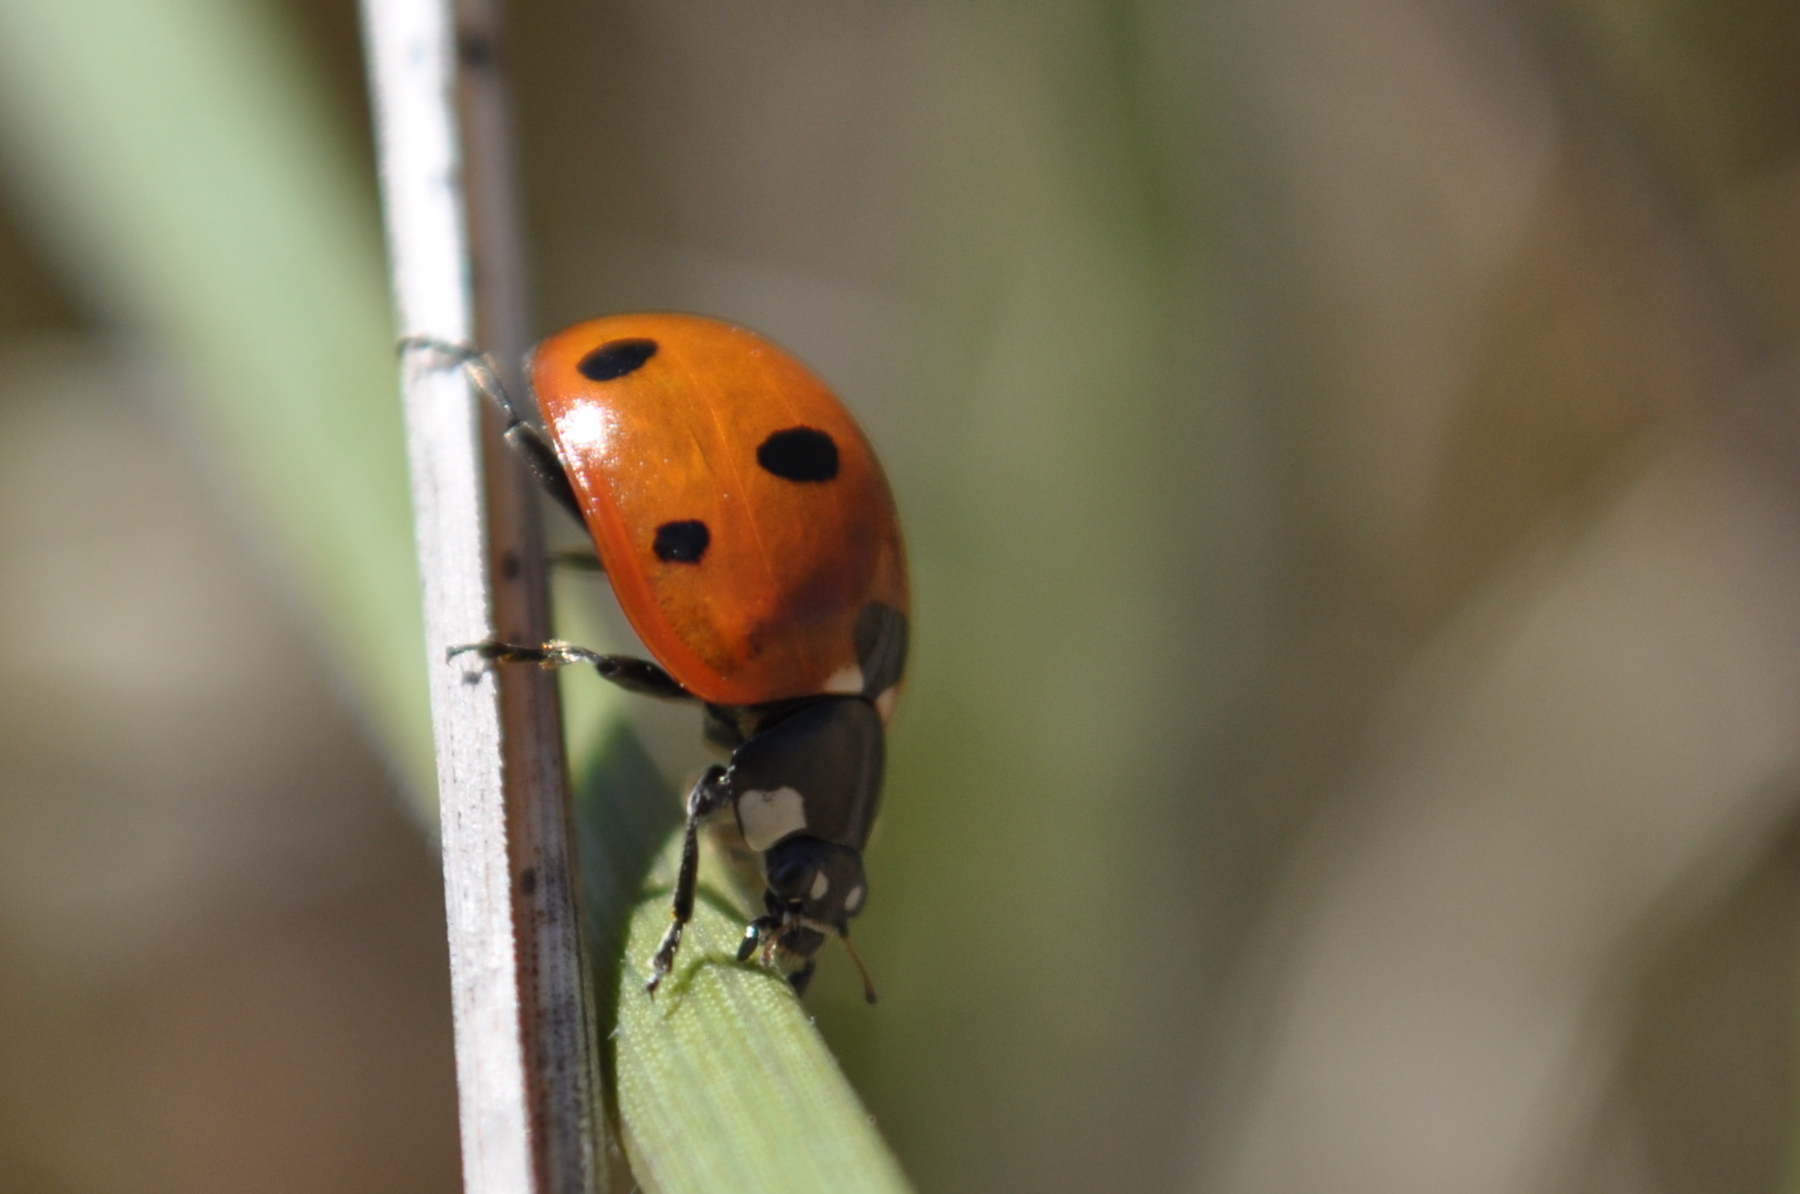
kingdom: Animalia
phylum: Arthropoda
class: Insecta
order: Coleoptera
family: Coccinellidae
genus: Coccinella
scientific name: Coccinella septempunctata
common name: Sevenspotted lady beetle
